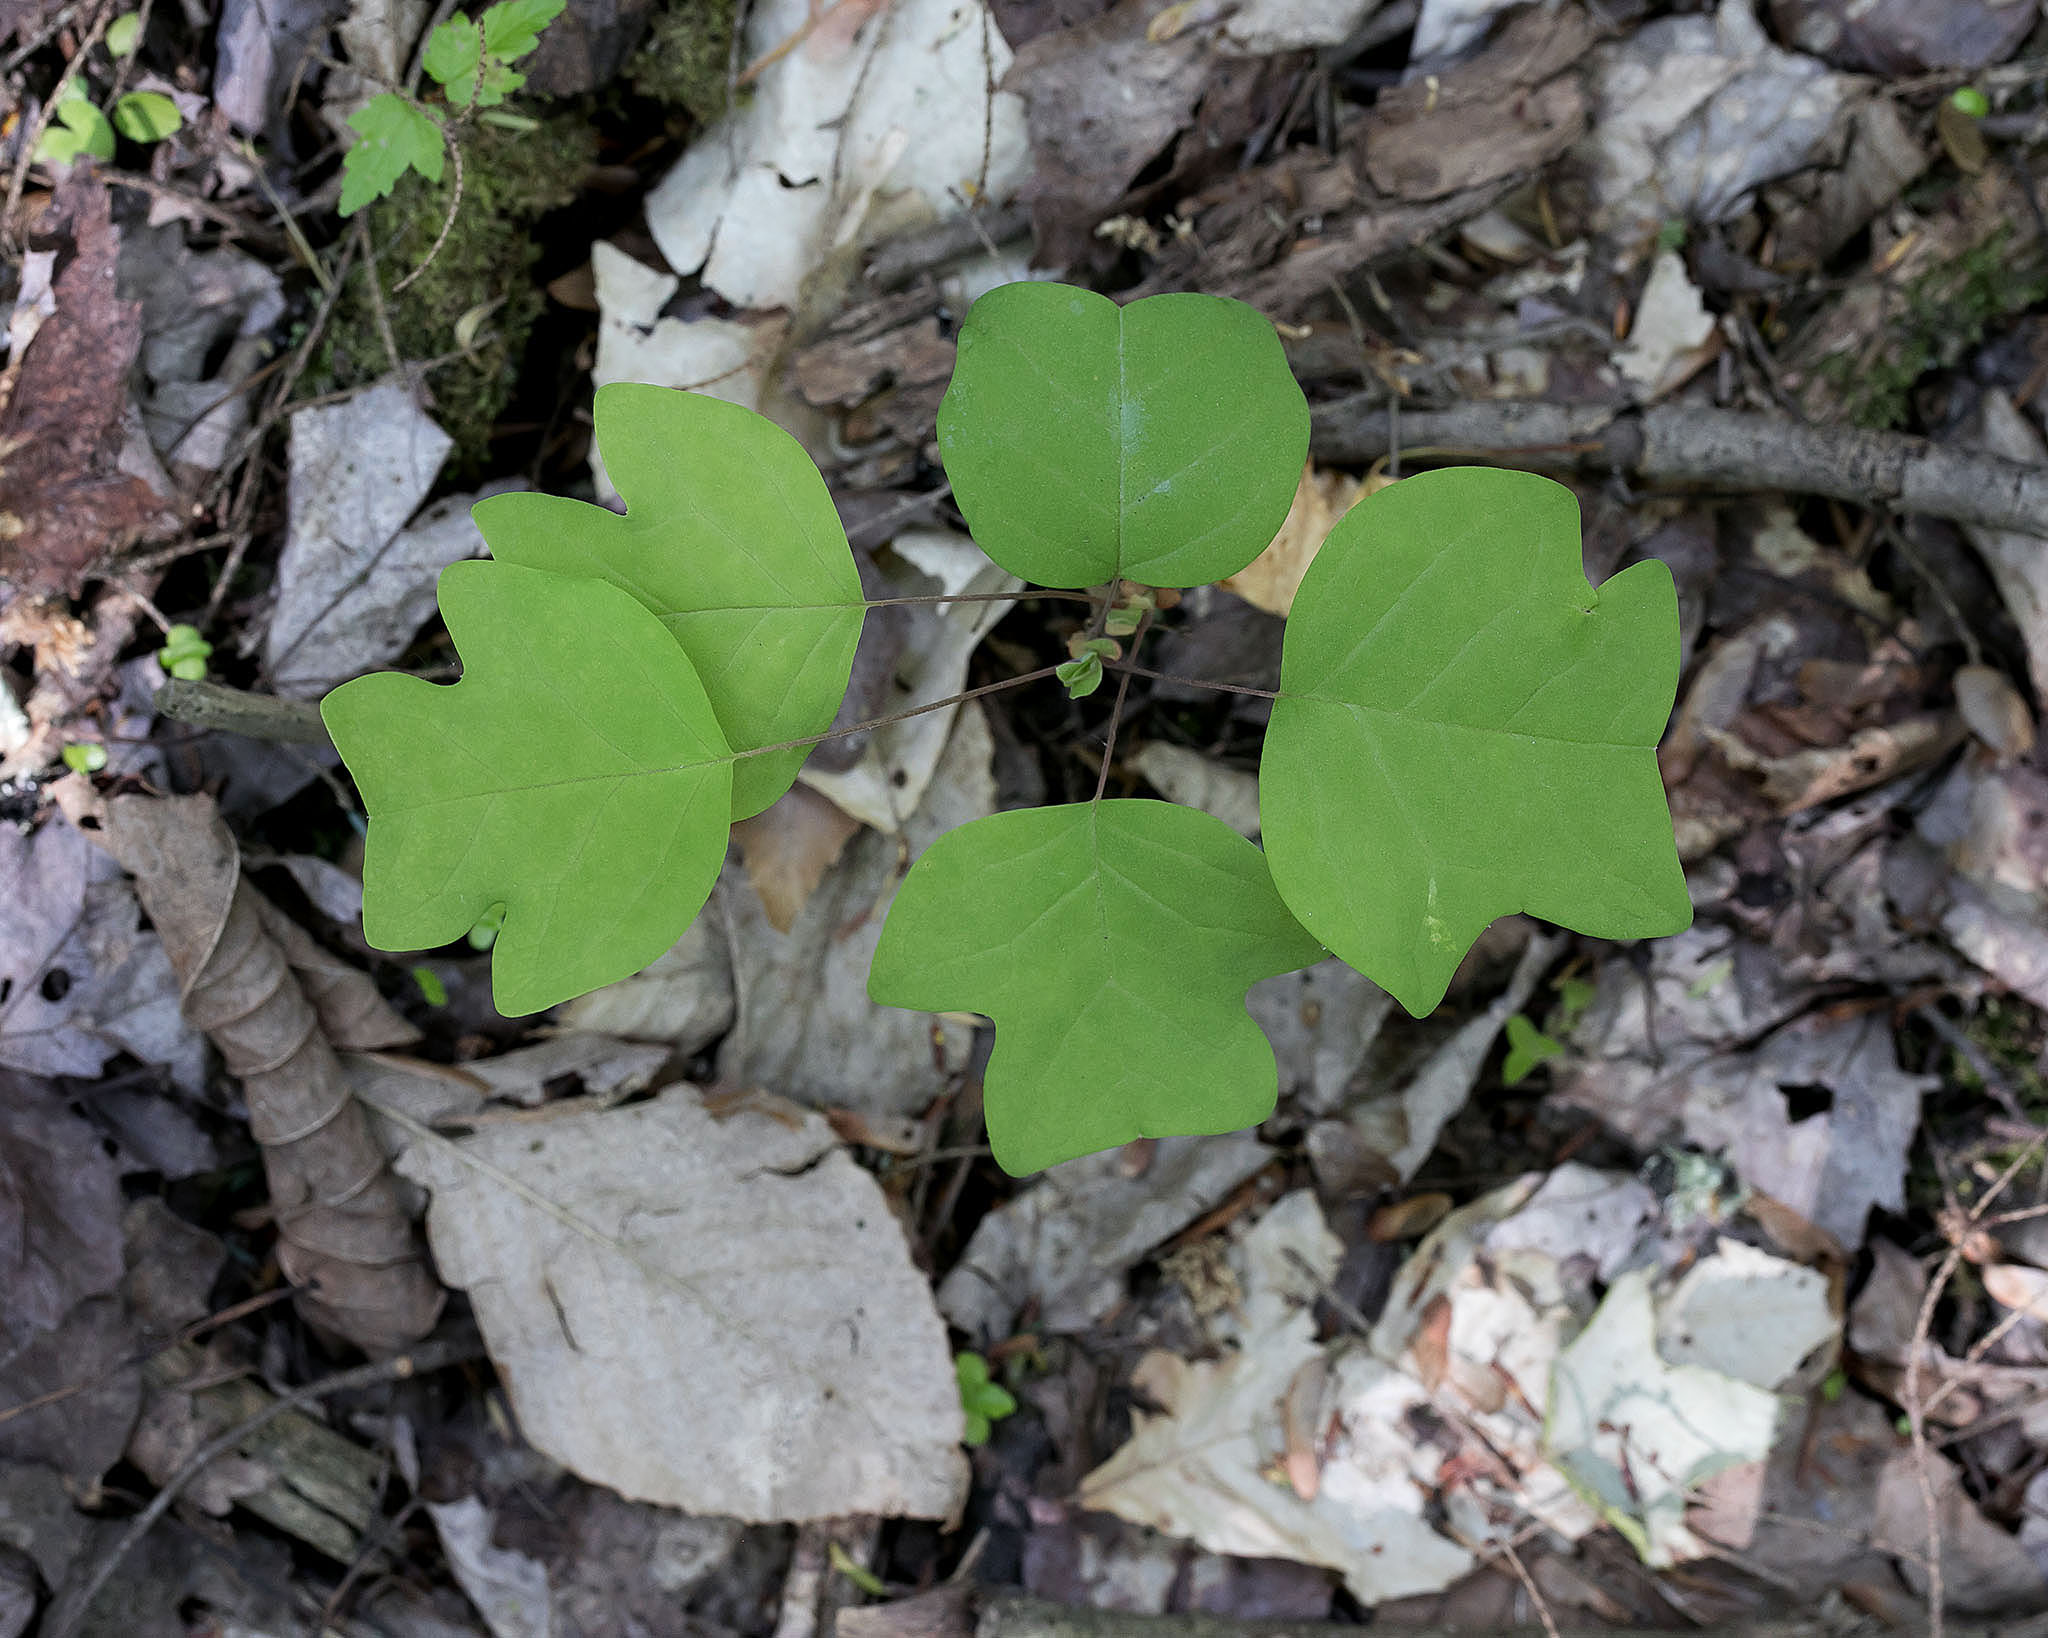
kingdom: Plantae
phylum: Tracheophyta
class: Magnoliopsida
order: Magnoliales
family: Magnoliaceae
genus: Liriodendron
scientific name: Liriodendron tulipifera
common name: Tulip tree
